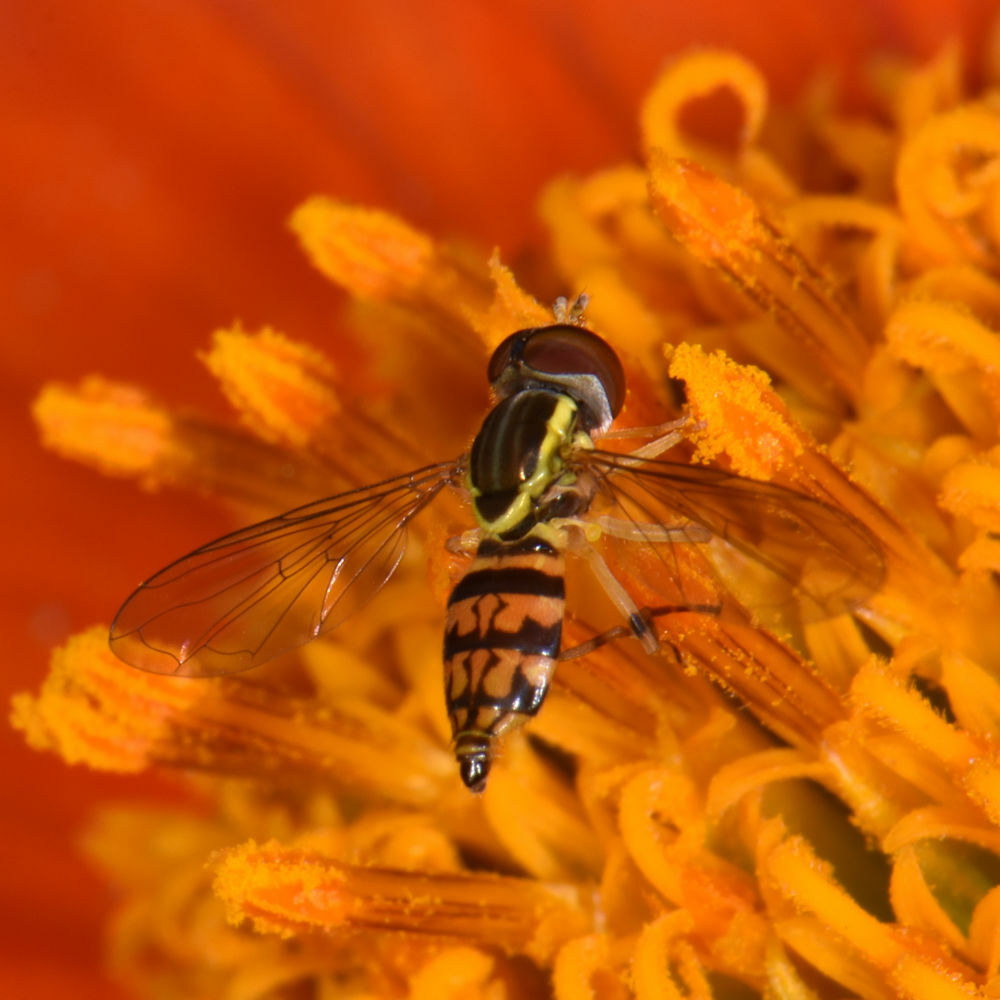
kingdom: Animalia
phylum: Arthropoda
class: Insecta
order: Diptera
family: Syrphidae
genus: Toxomerus
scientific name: Toxomerus geminatus
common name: Eastern calligrapher
